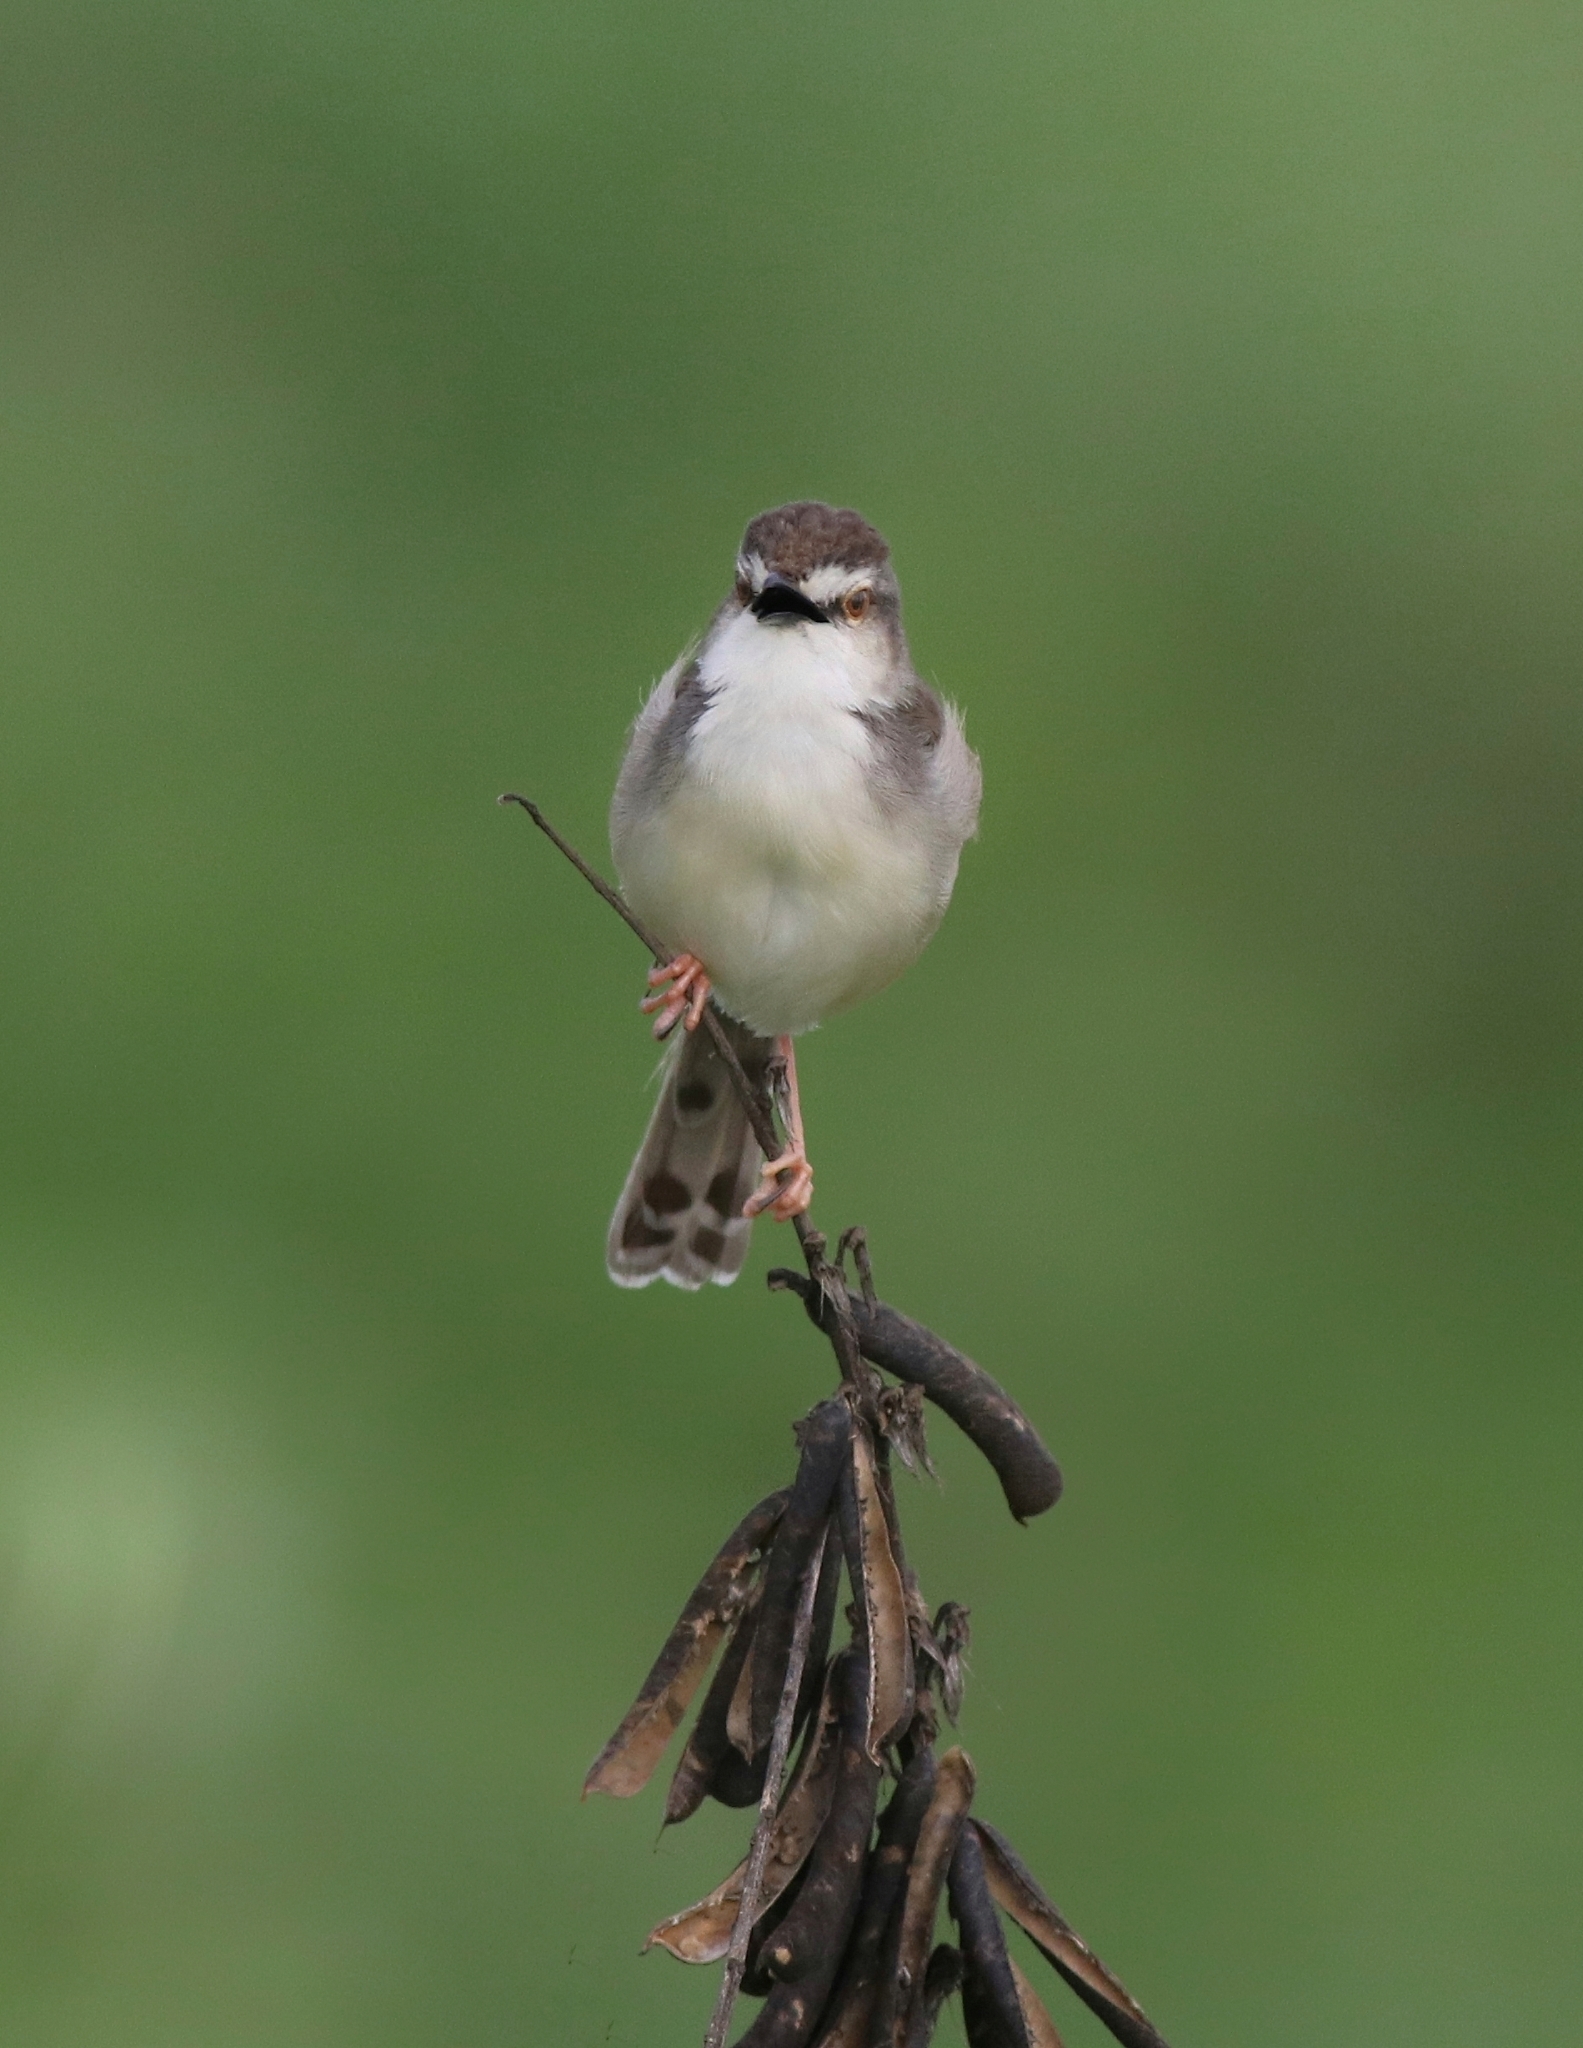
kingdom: Animalia
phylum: Chordata
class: Aves
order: Passeriformes
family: Cisticolidae
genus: Prinia
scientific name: Prinia inornata
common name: Plain prinia
